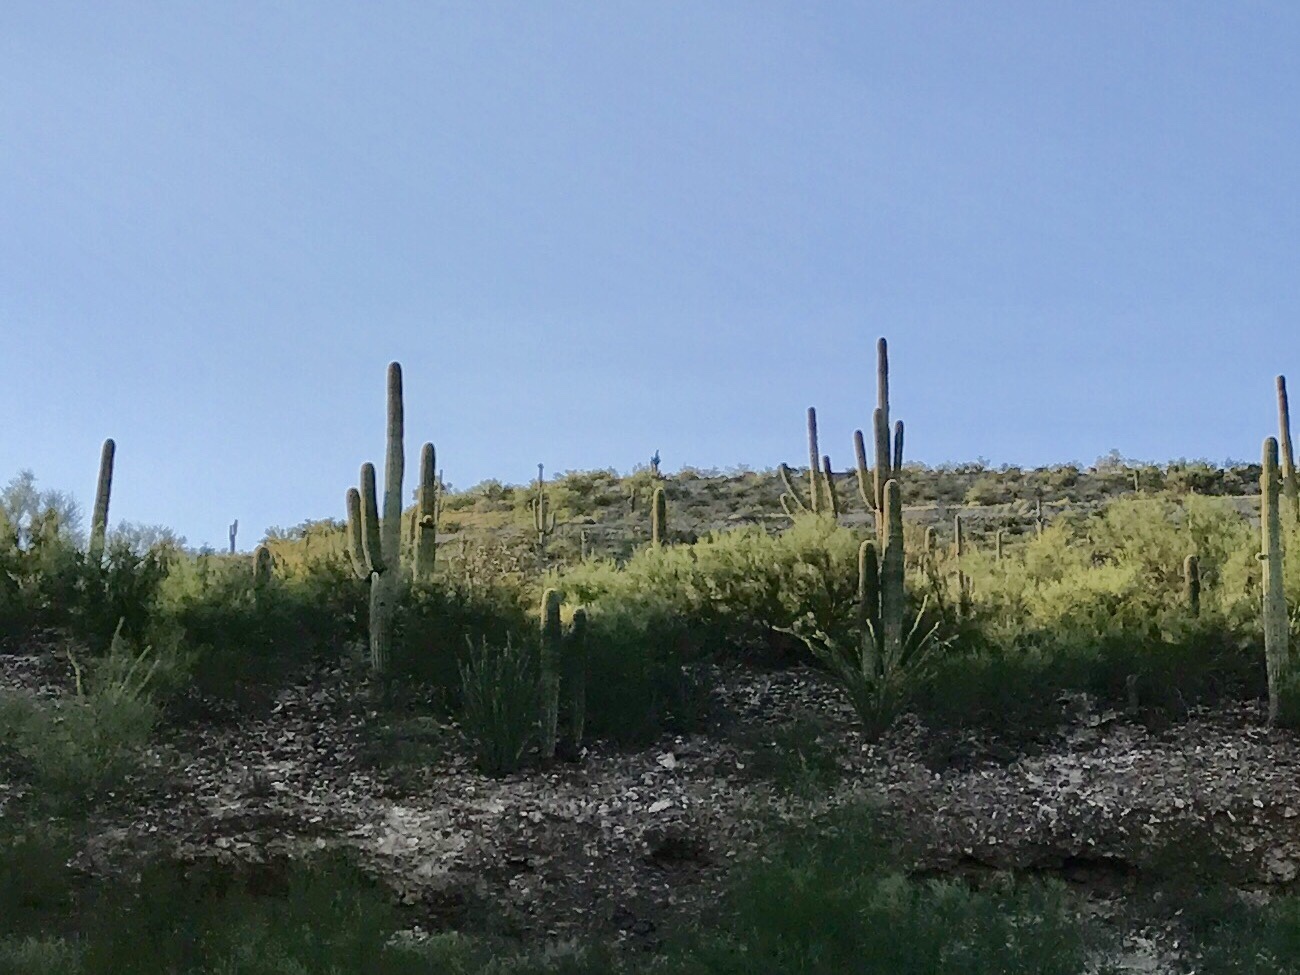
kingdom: Plantae
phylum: Tracheophyta
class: Magnoliopsida
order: Caryophyllales
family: Cactaceae
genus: Carnegiea
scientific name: Carnegiea gigantea
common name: Saguaro
